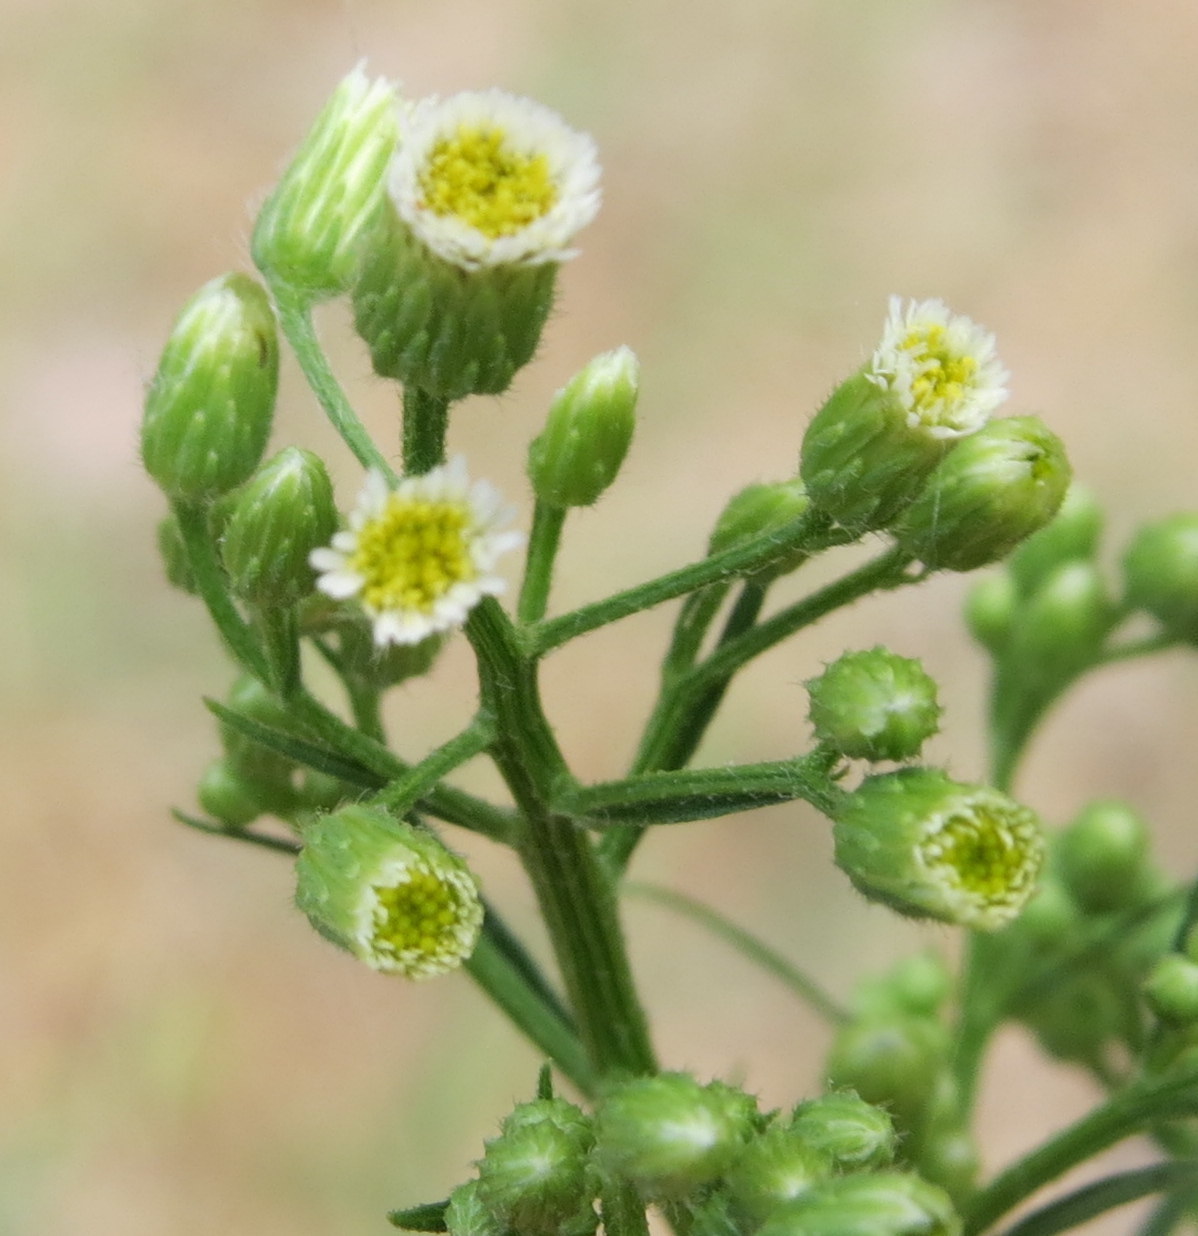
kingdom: Plantae
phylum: Tracheophyta
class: Magnoliopsida
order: Asterales
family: Asteraceae
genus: Erigeron
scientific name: Erigeron canadensis
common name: Canadian fleabane
